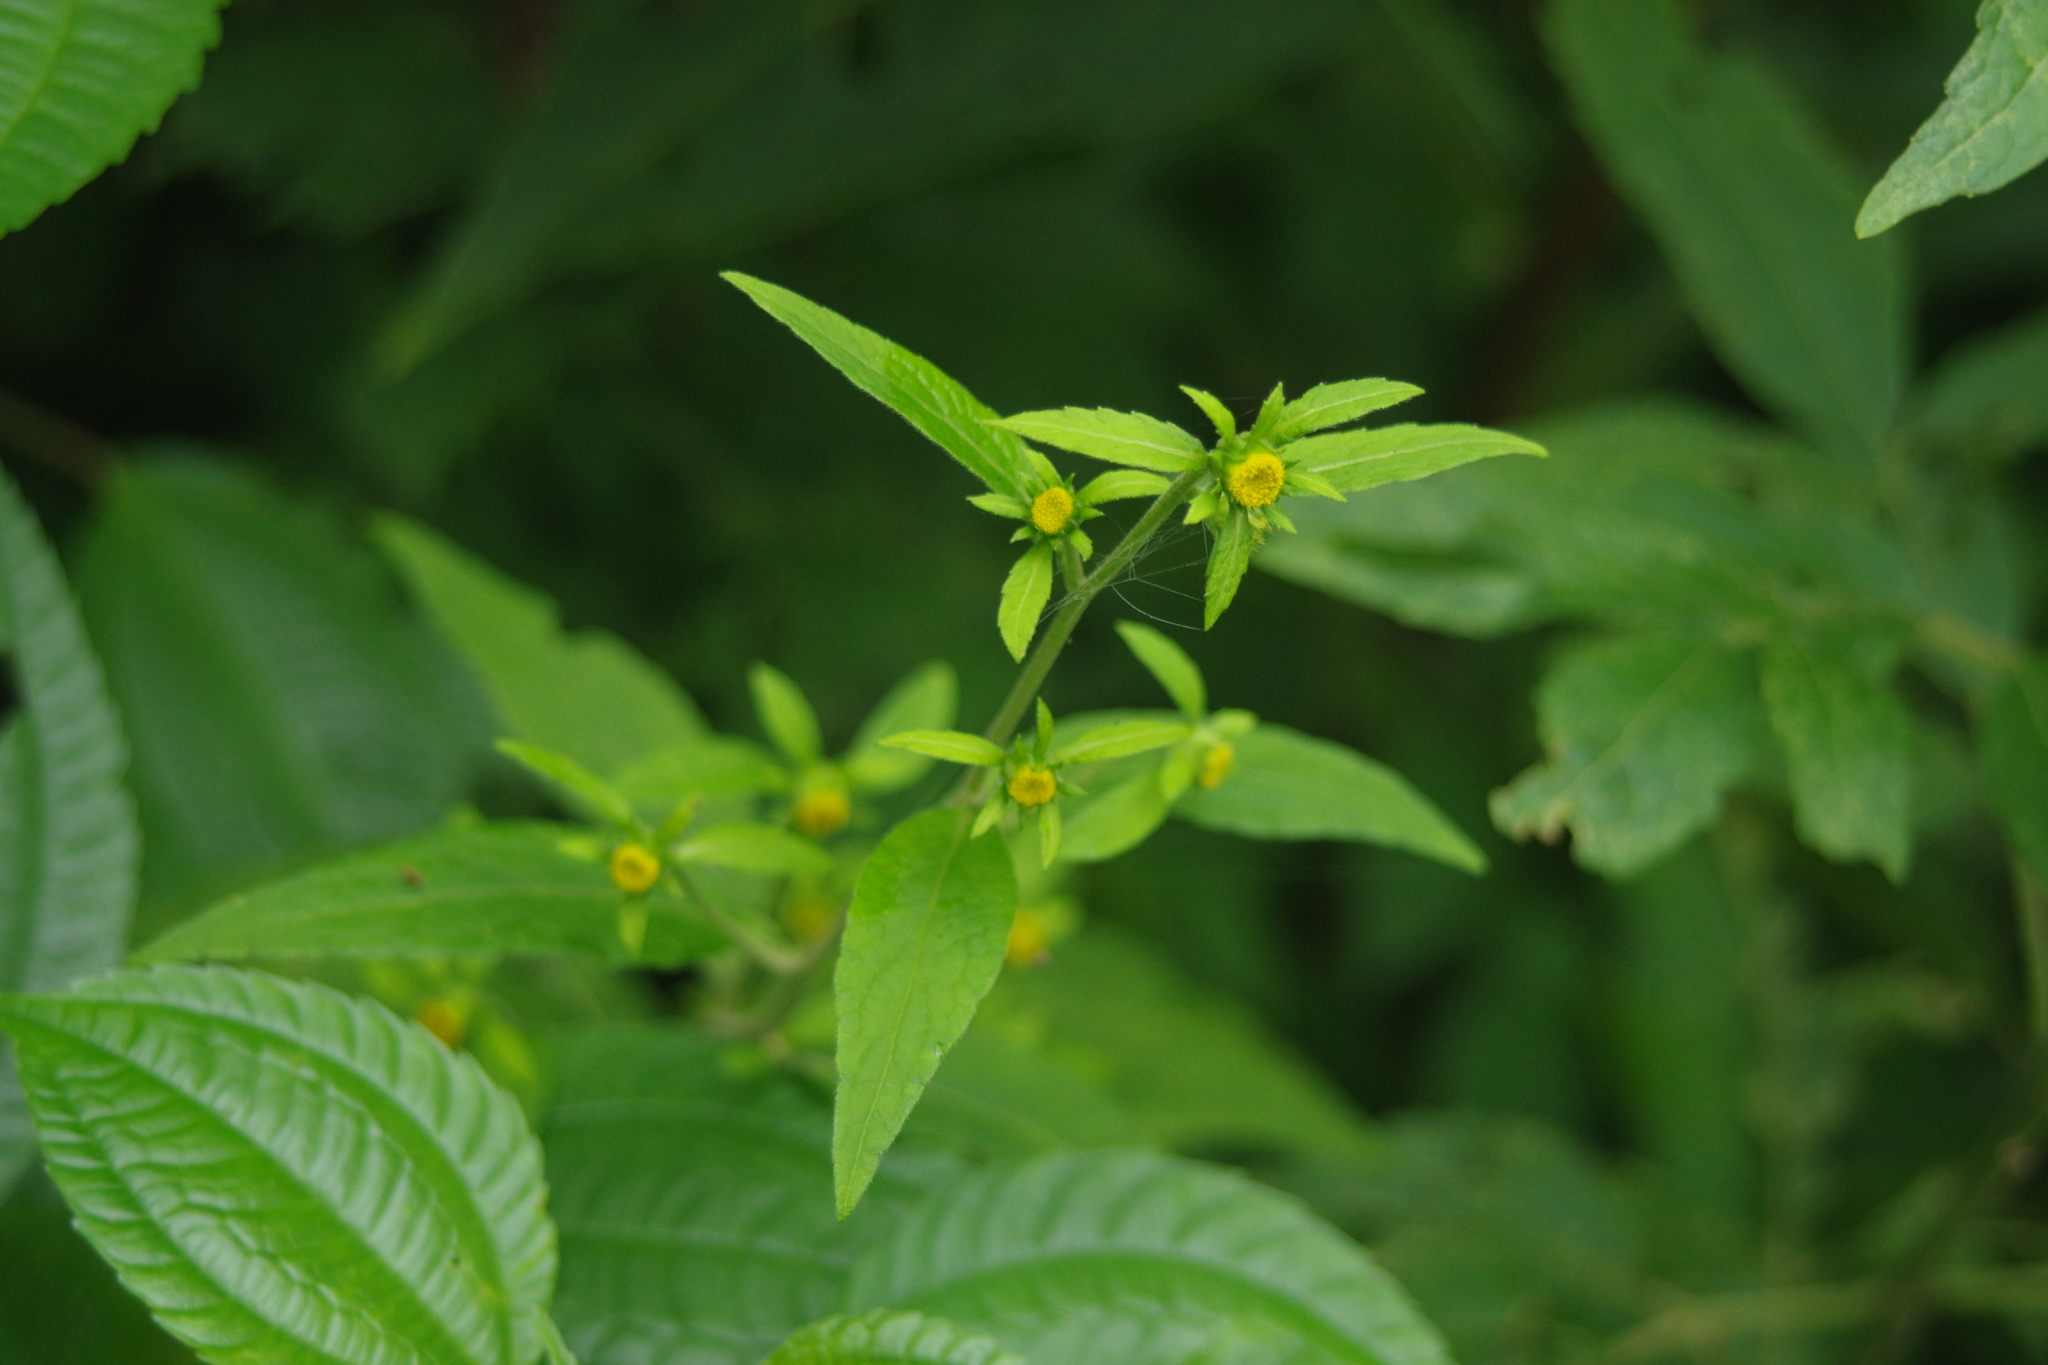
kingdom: Plantae
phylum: Tracheophyta
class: Magnoliopsida
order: Asterales
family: Asteraceae
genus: Carpesium
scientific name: Carpesium nepalense
